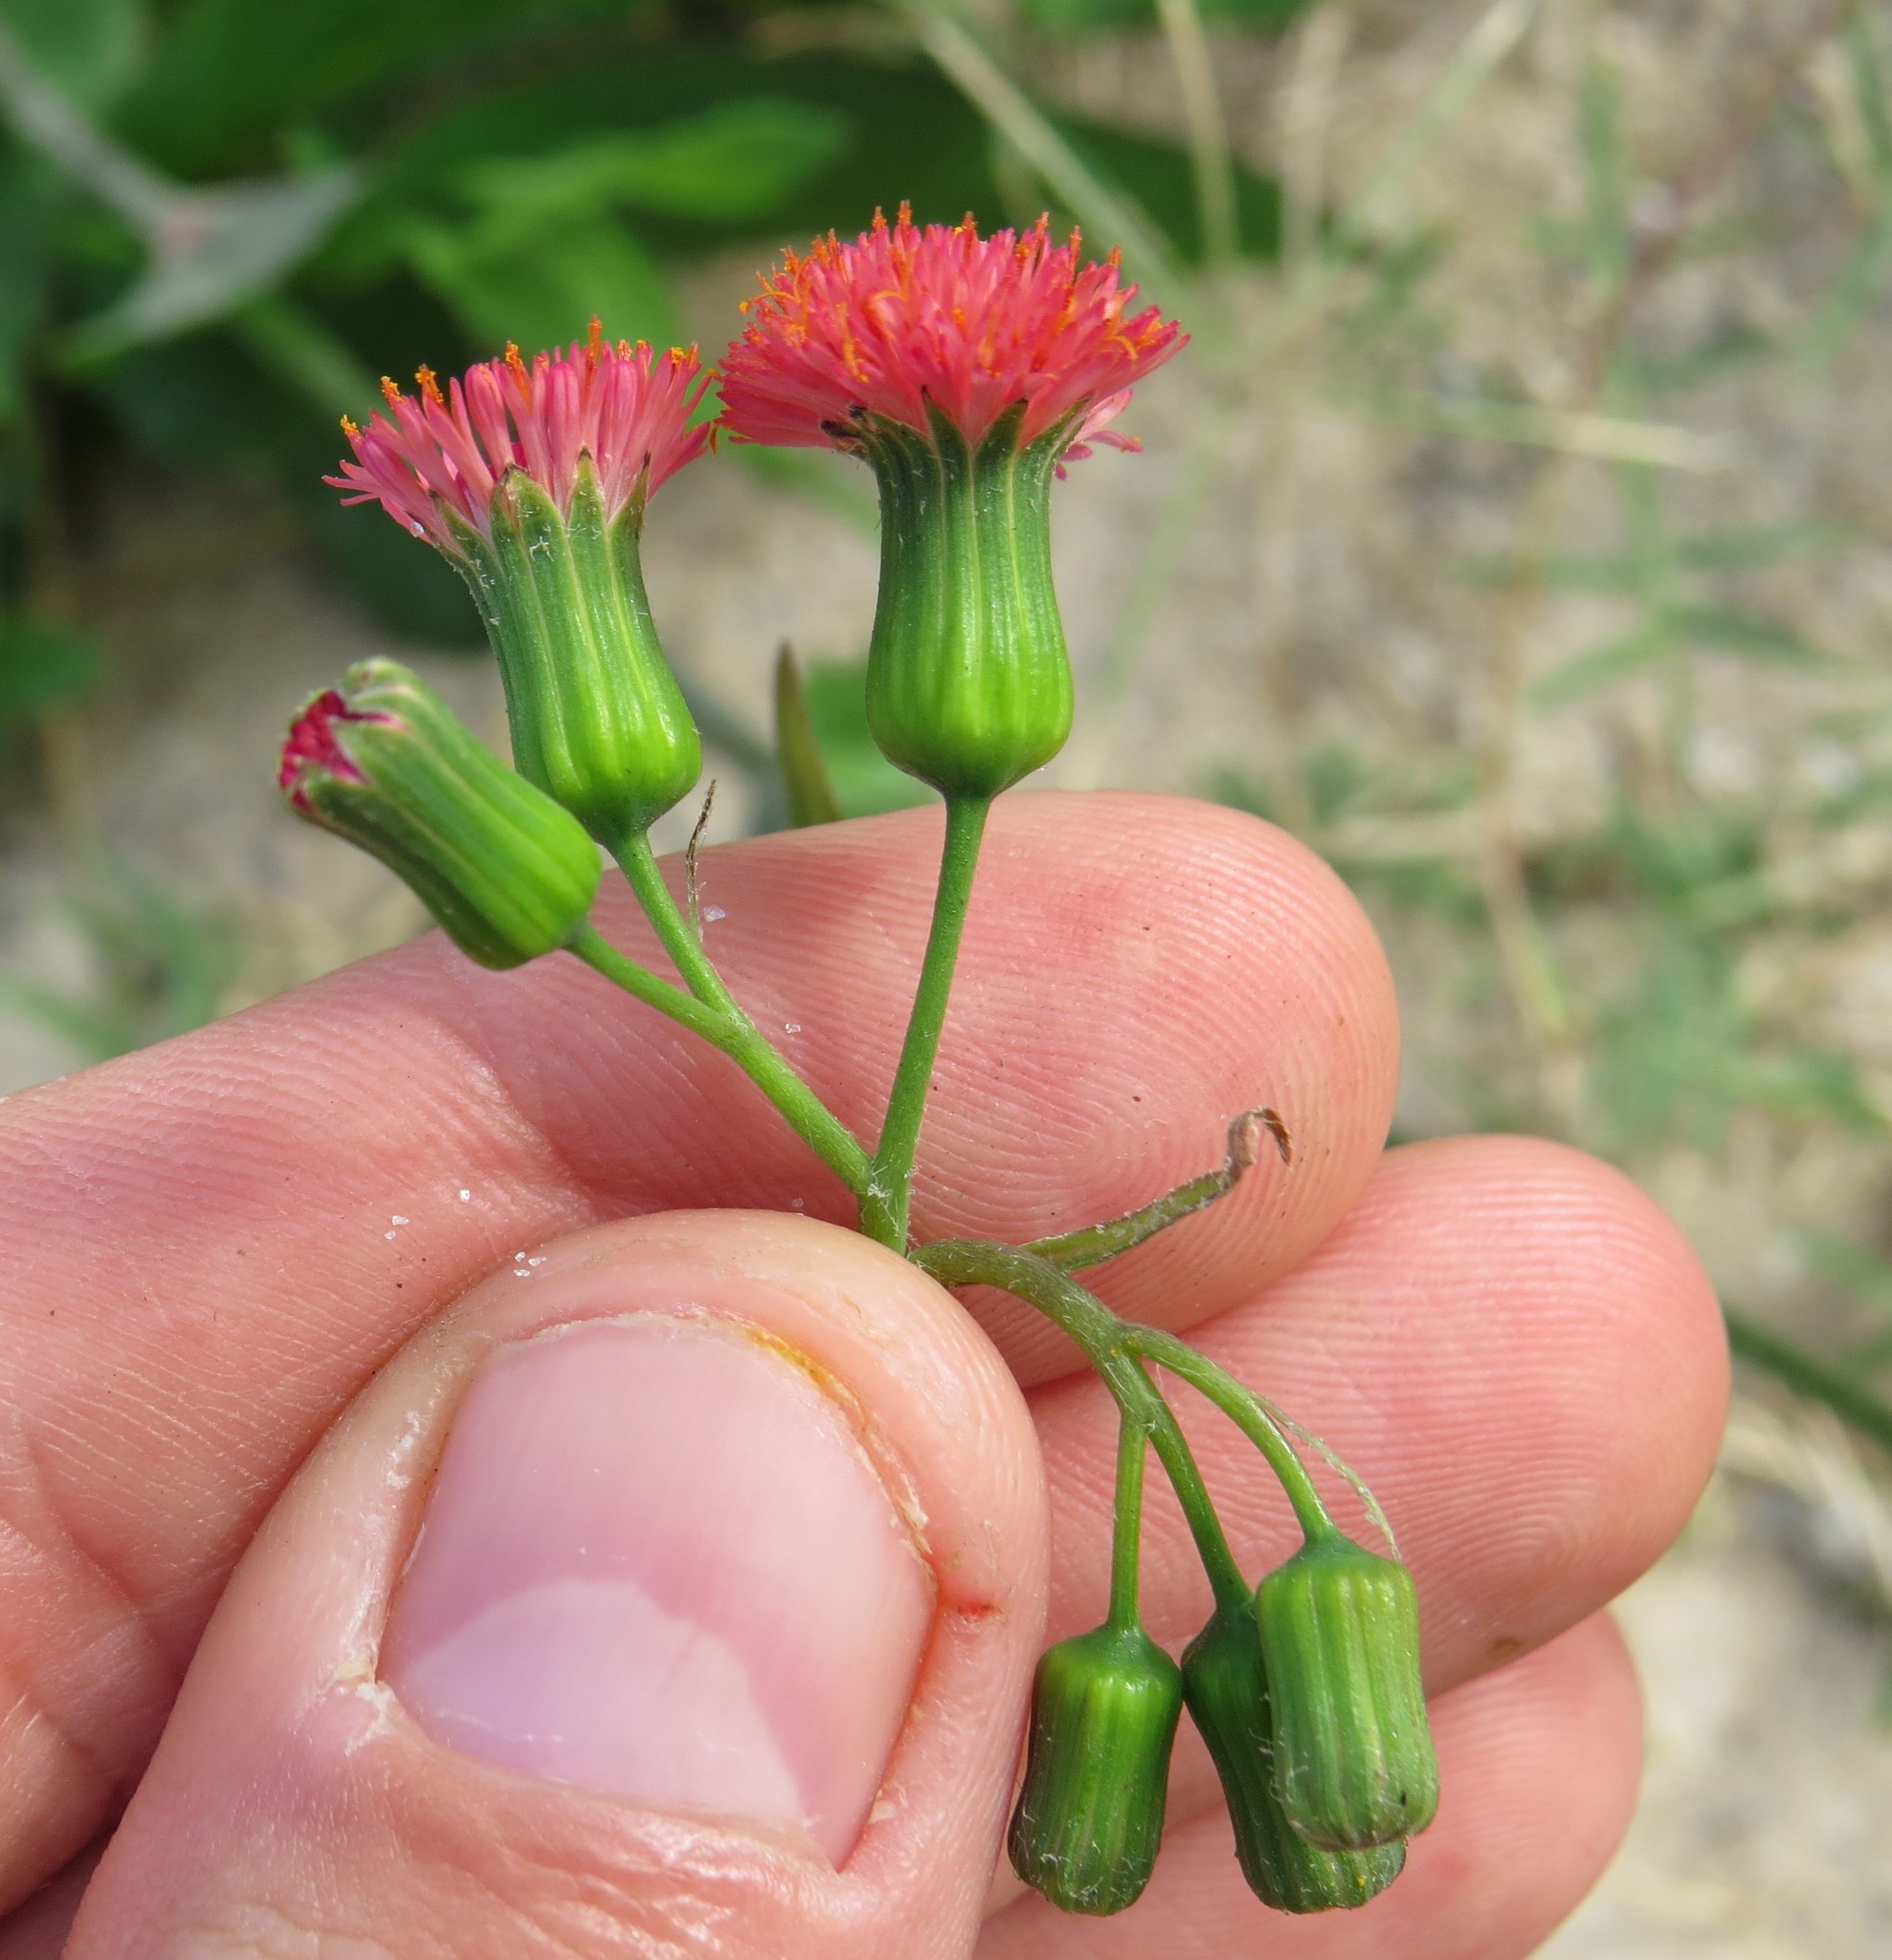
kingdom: Plantae
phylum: Tracheophyta
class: Magnoliopsida
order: Asterales
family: Asteraceae
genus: Emilia
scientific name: Emilia fosbergii
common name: Florida tasselflower
